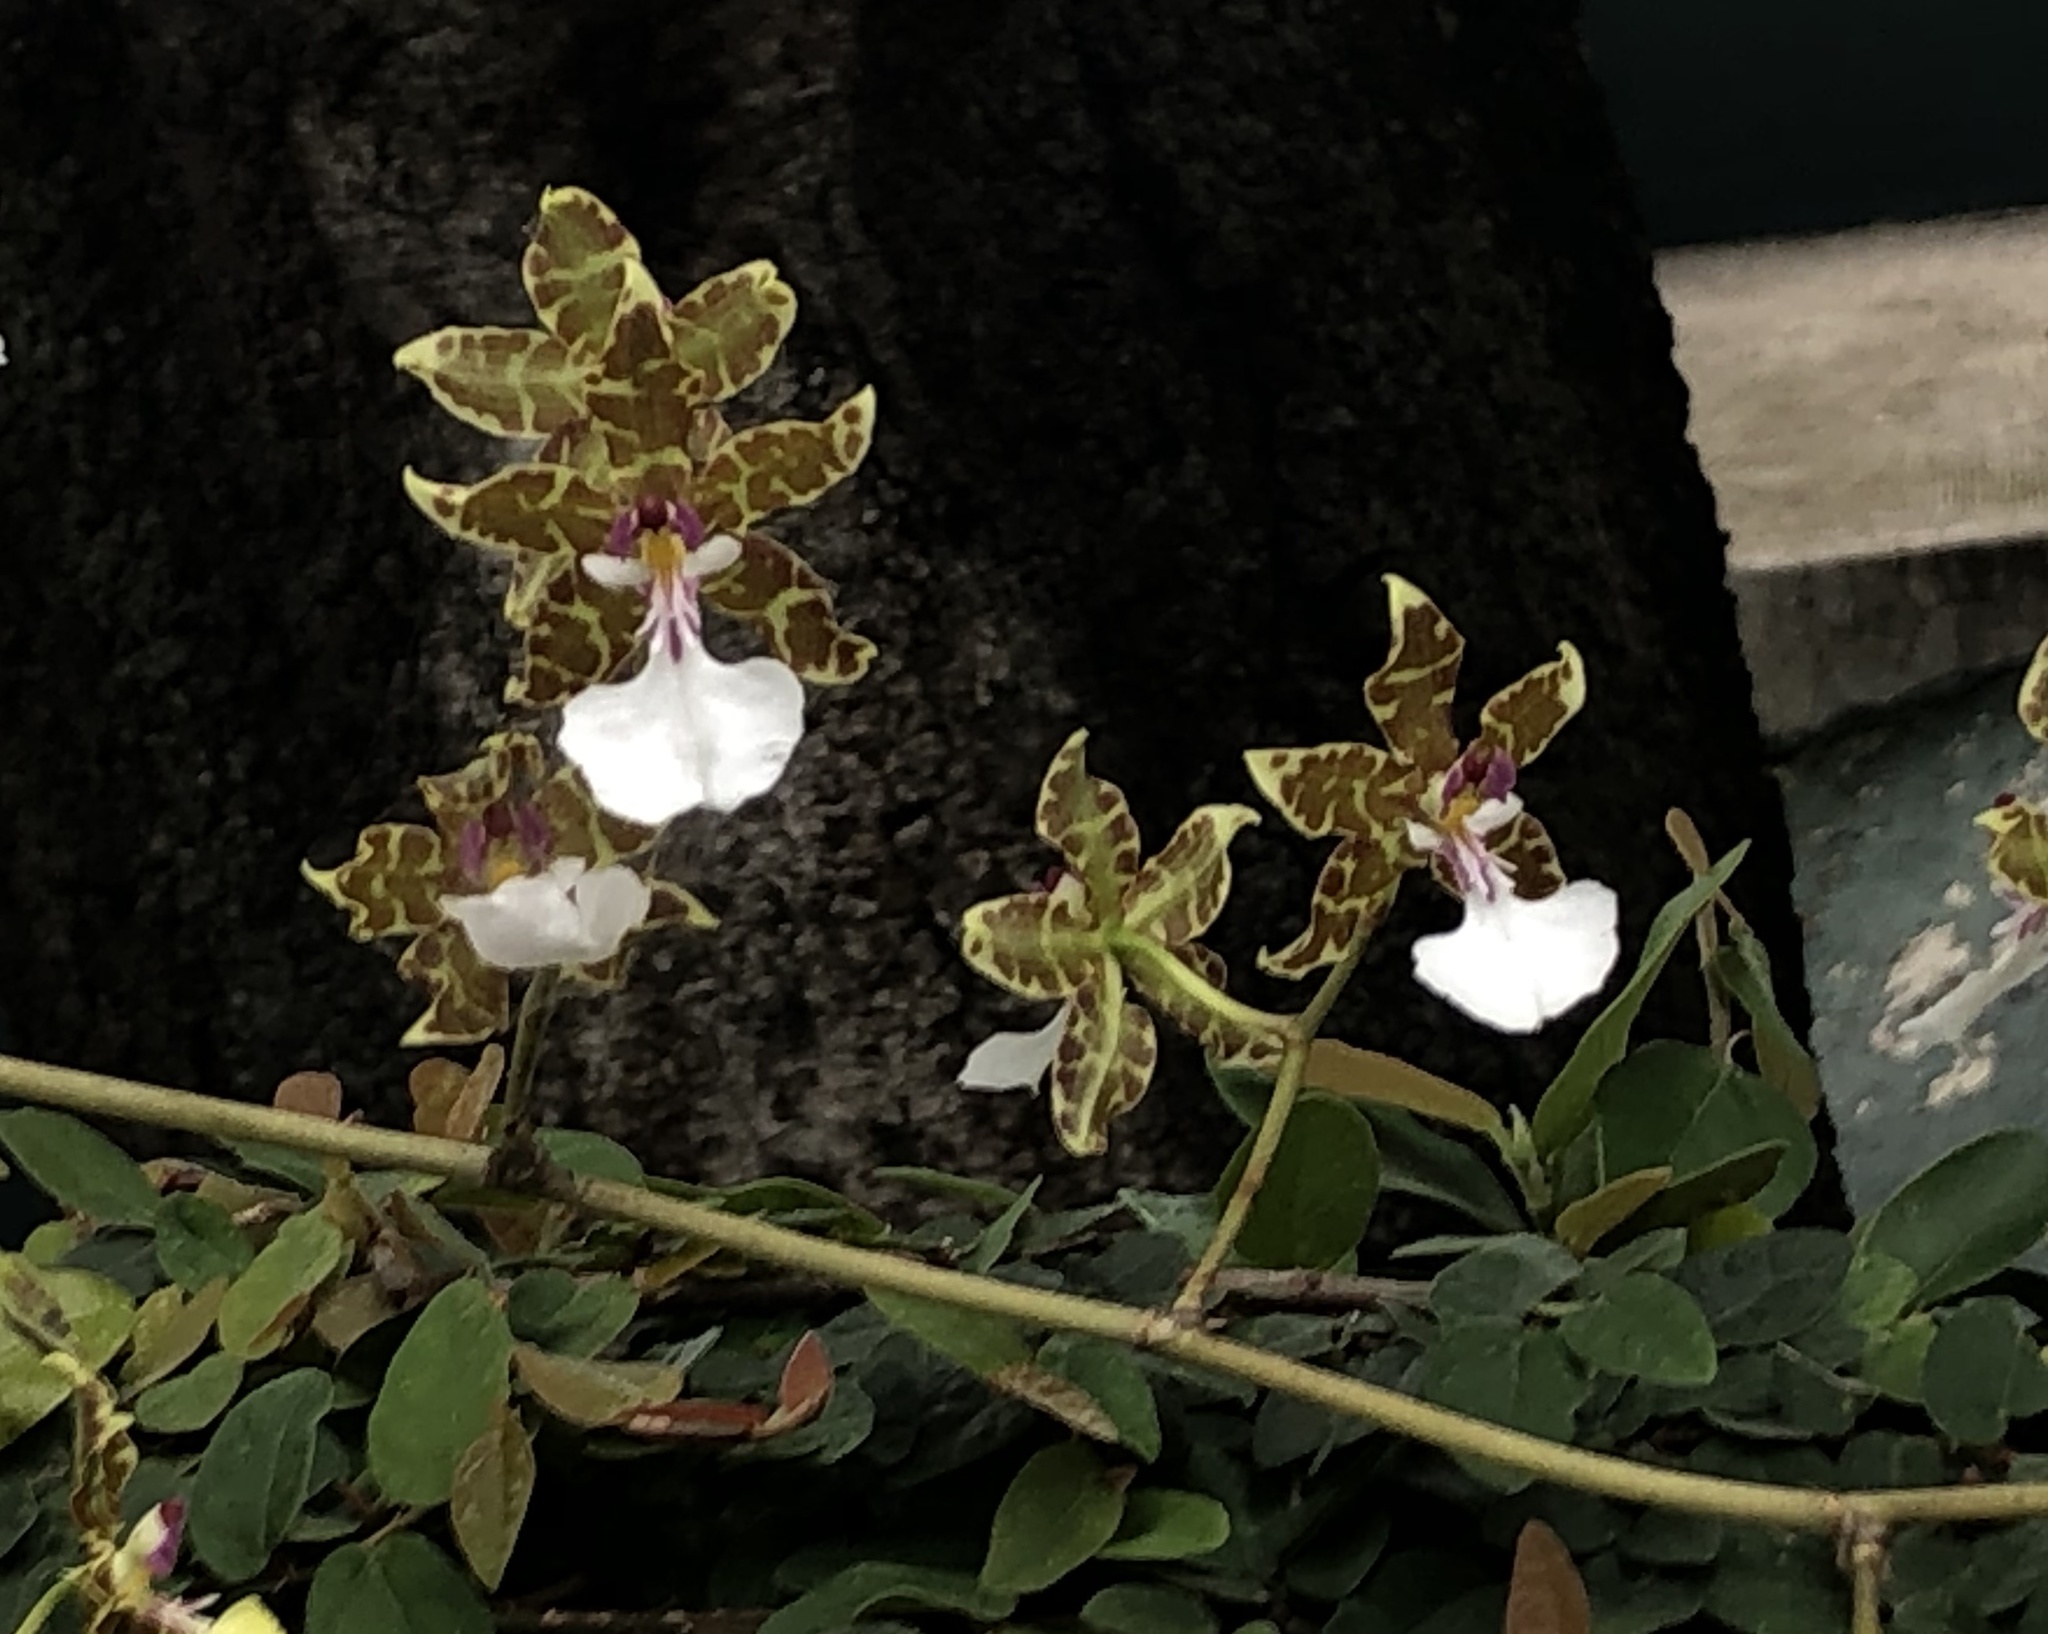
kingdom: Plantae
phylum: Tracheophyta
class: Liliopsida
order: Asparagales
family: Orchidaceae
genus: Oncidium
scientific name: Oncidium leucochilum
